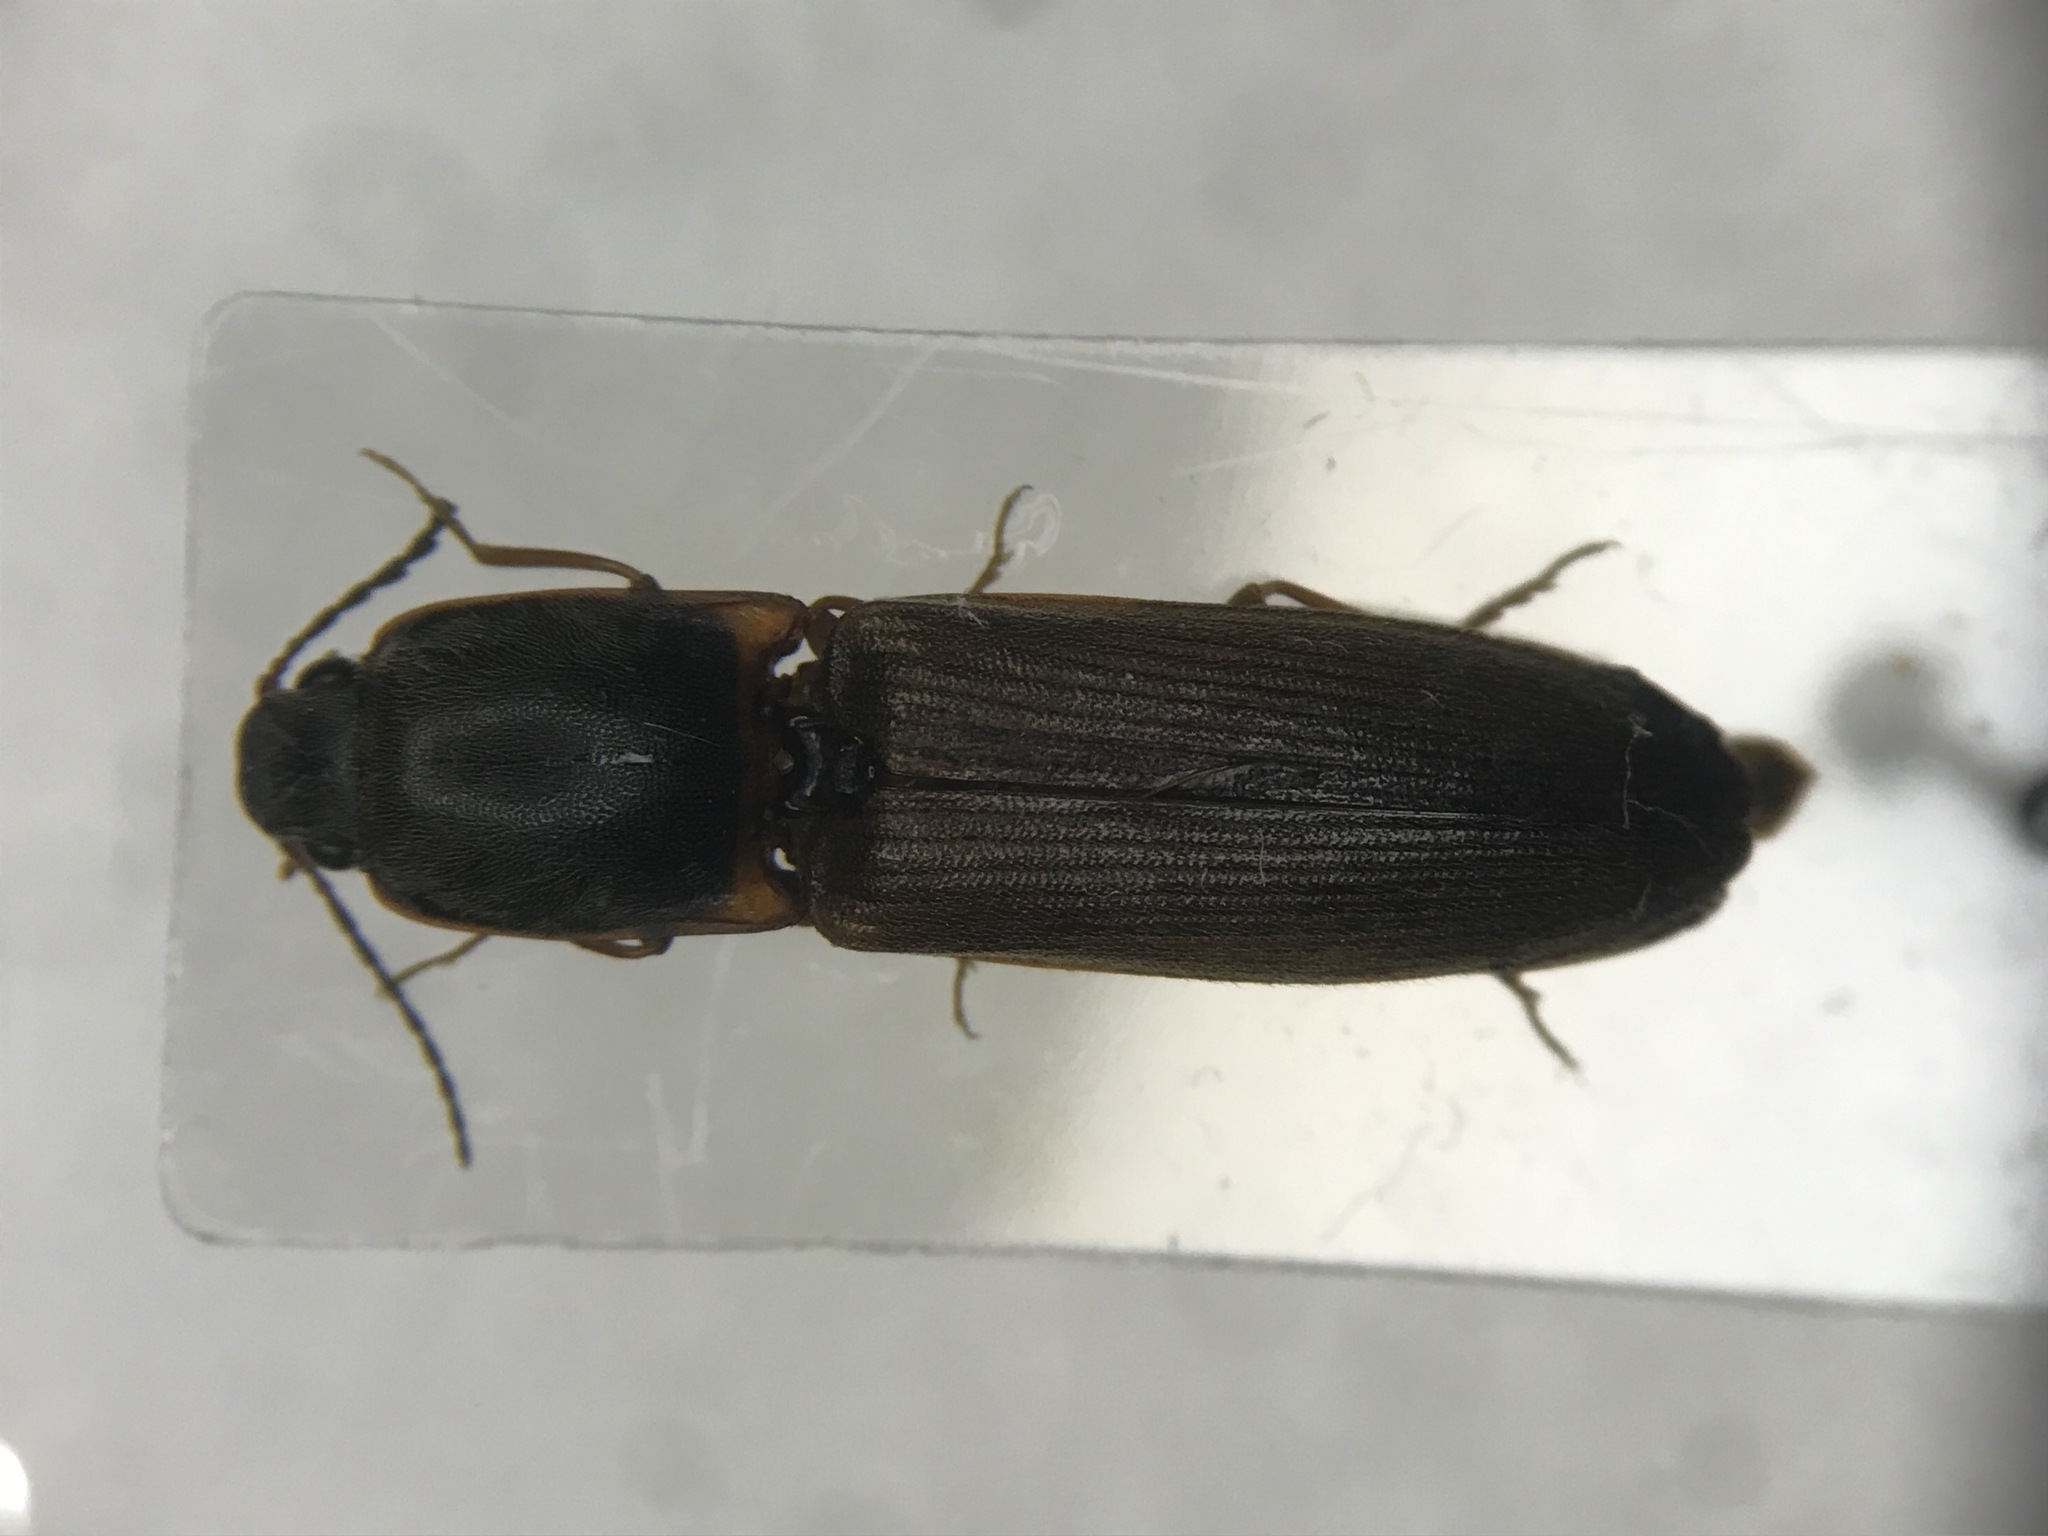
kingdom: Animalia
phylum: Arthropoda
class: Insecta
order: Coleoptera
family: Elateridae
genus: Athous
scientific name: Athous posticus
